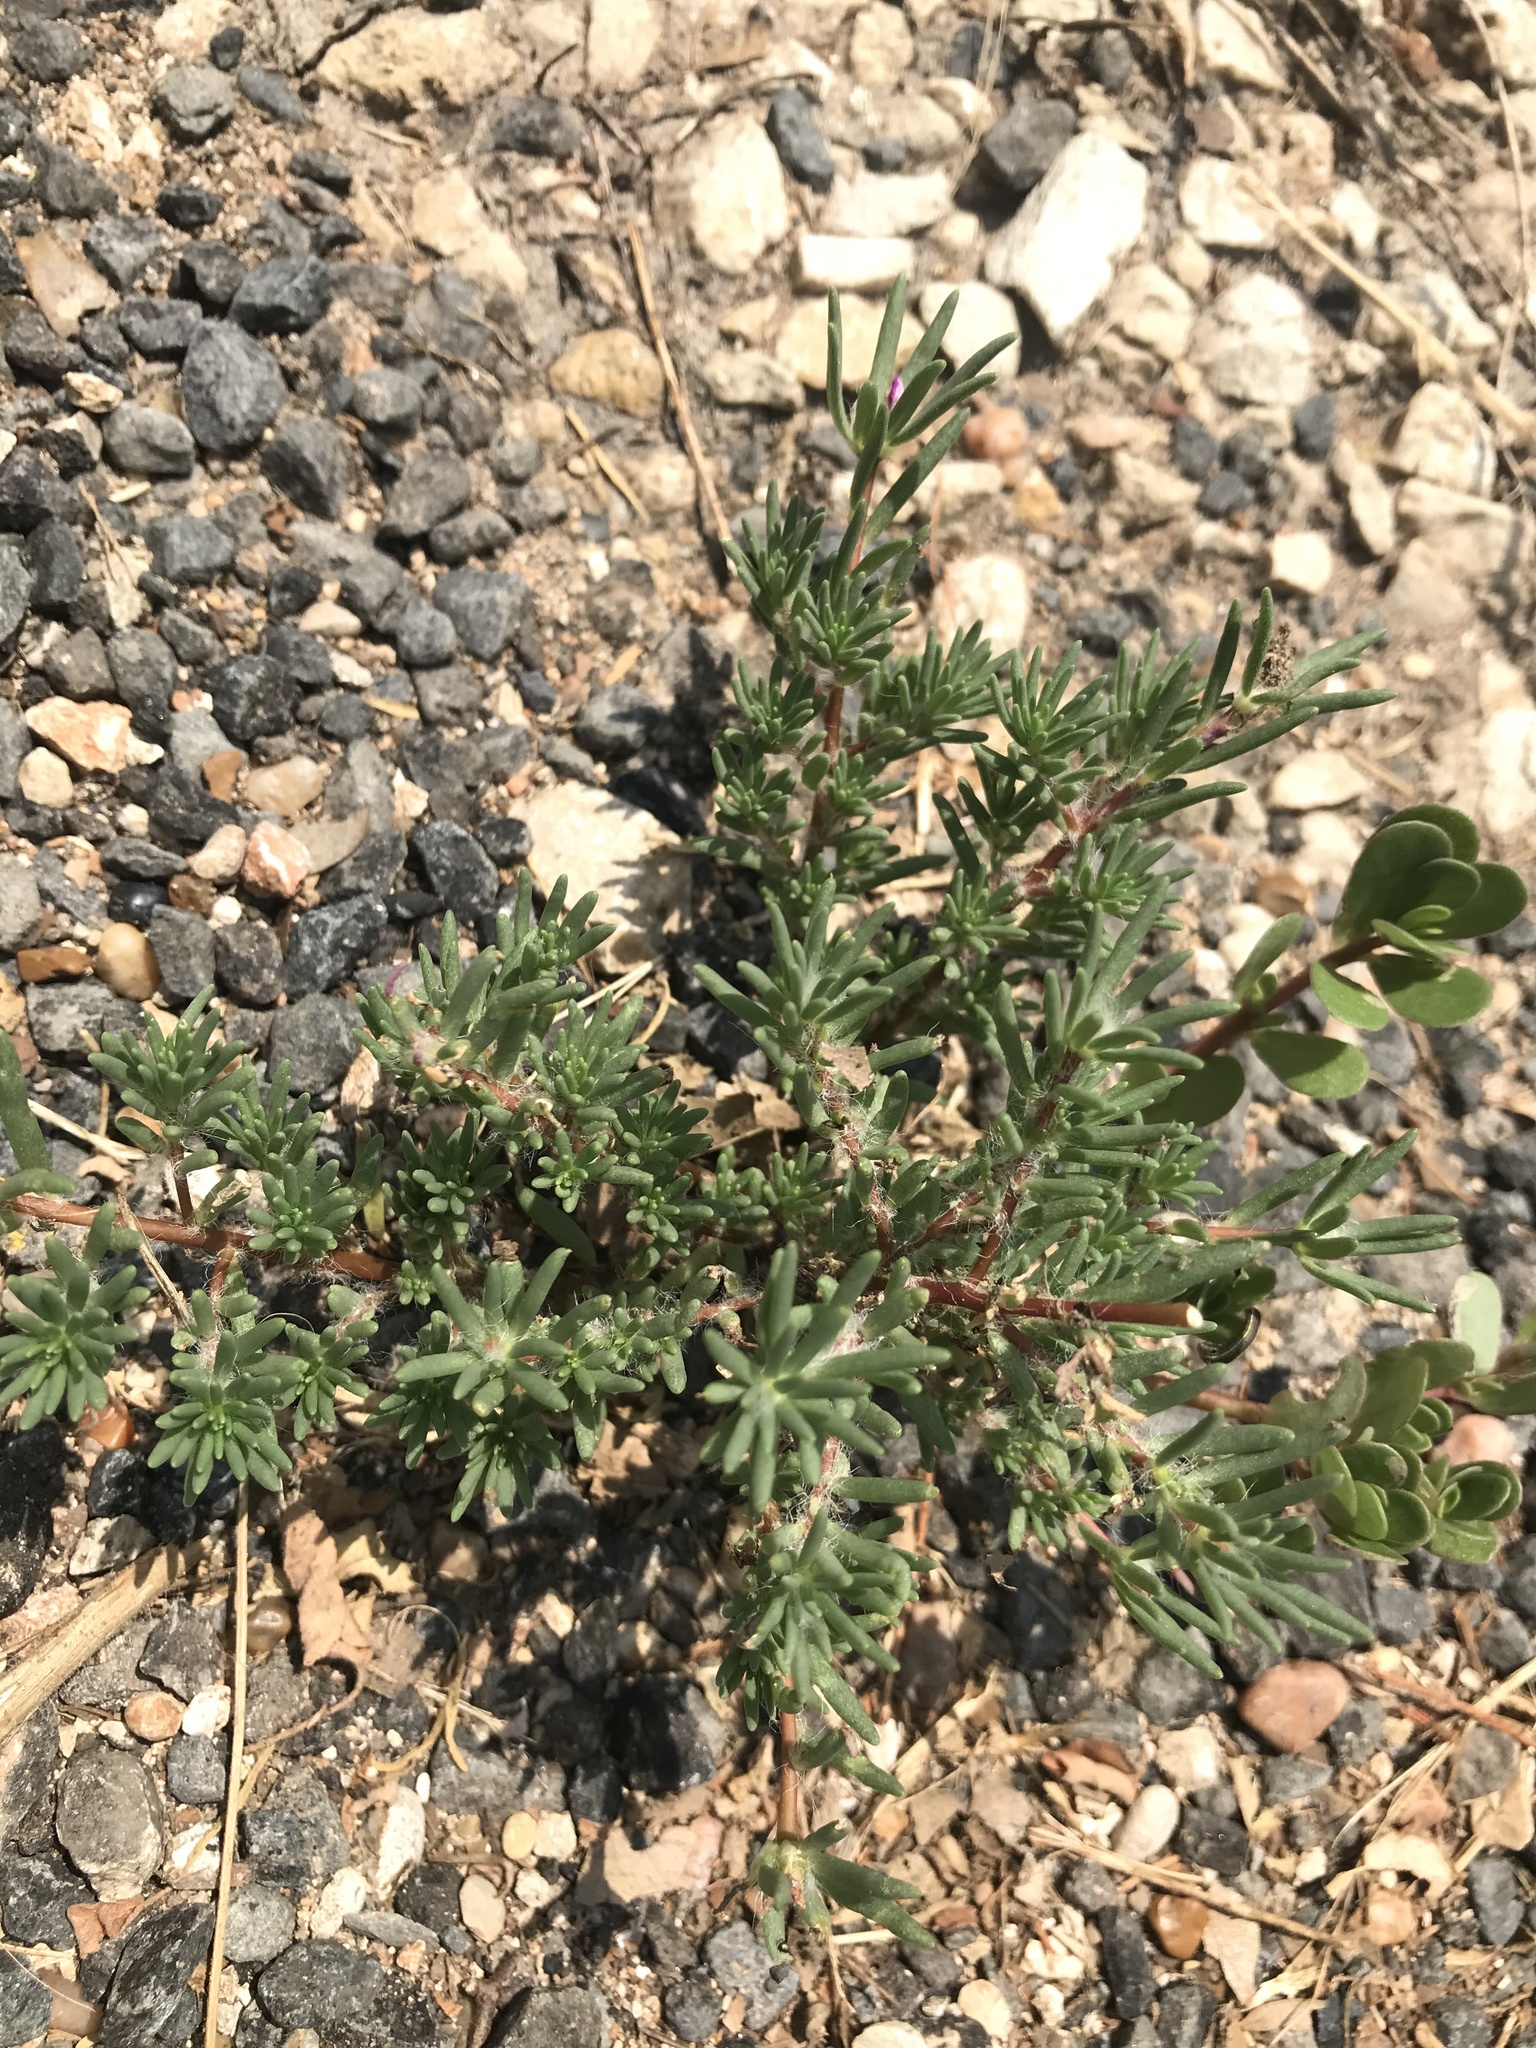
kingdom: Plantae
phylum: Tracheophyta
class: Magnoliopsida
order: Caryophyllales
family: Portulacaceae
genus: Portulaca
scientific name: Portulaca pilosa
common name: Kiss me quick
